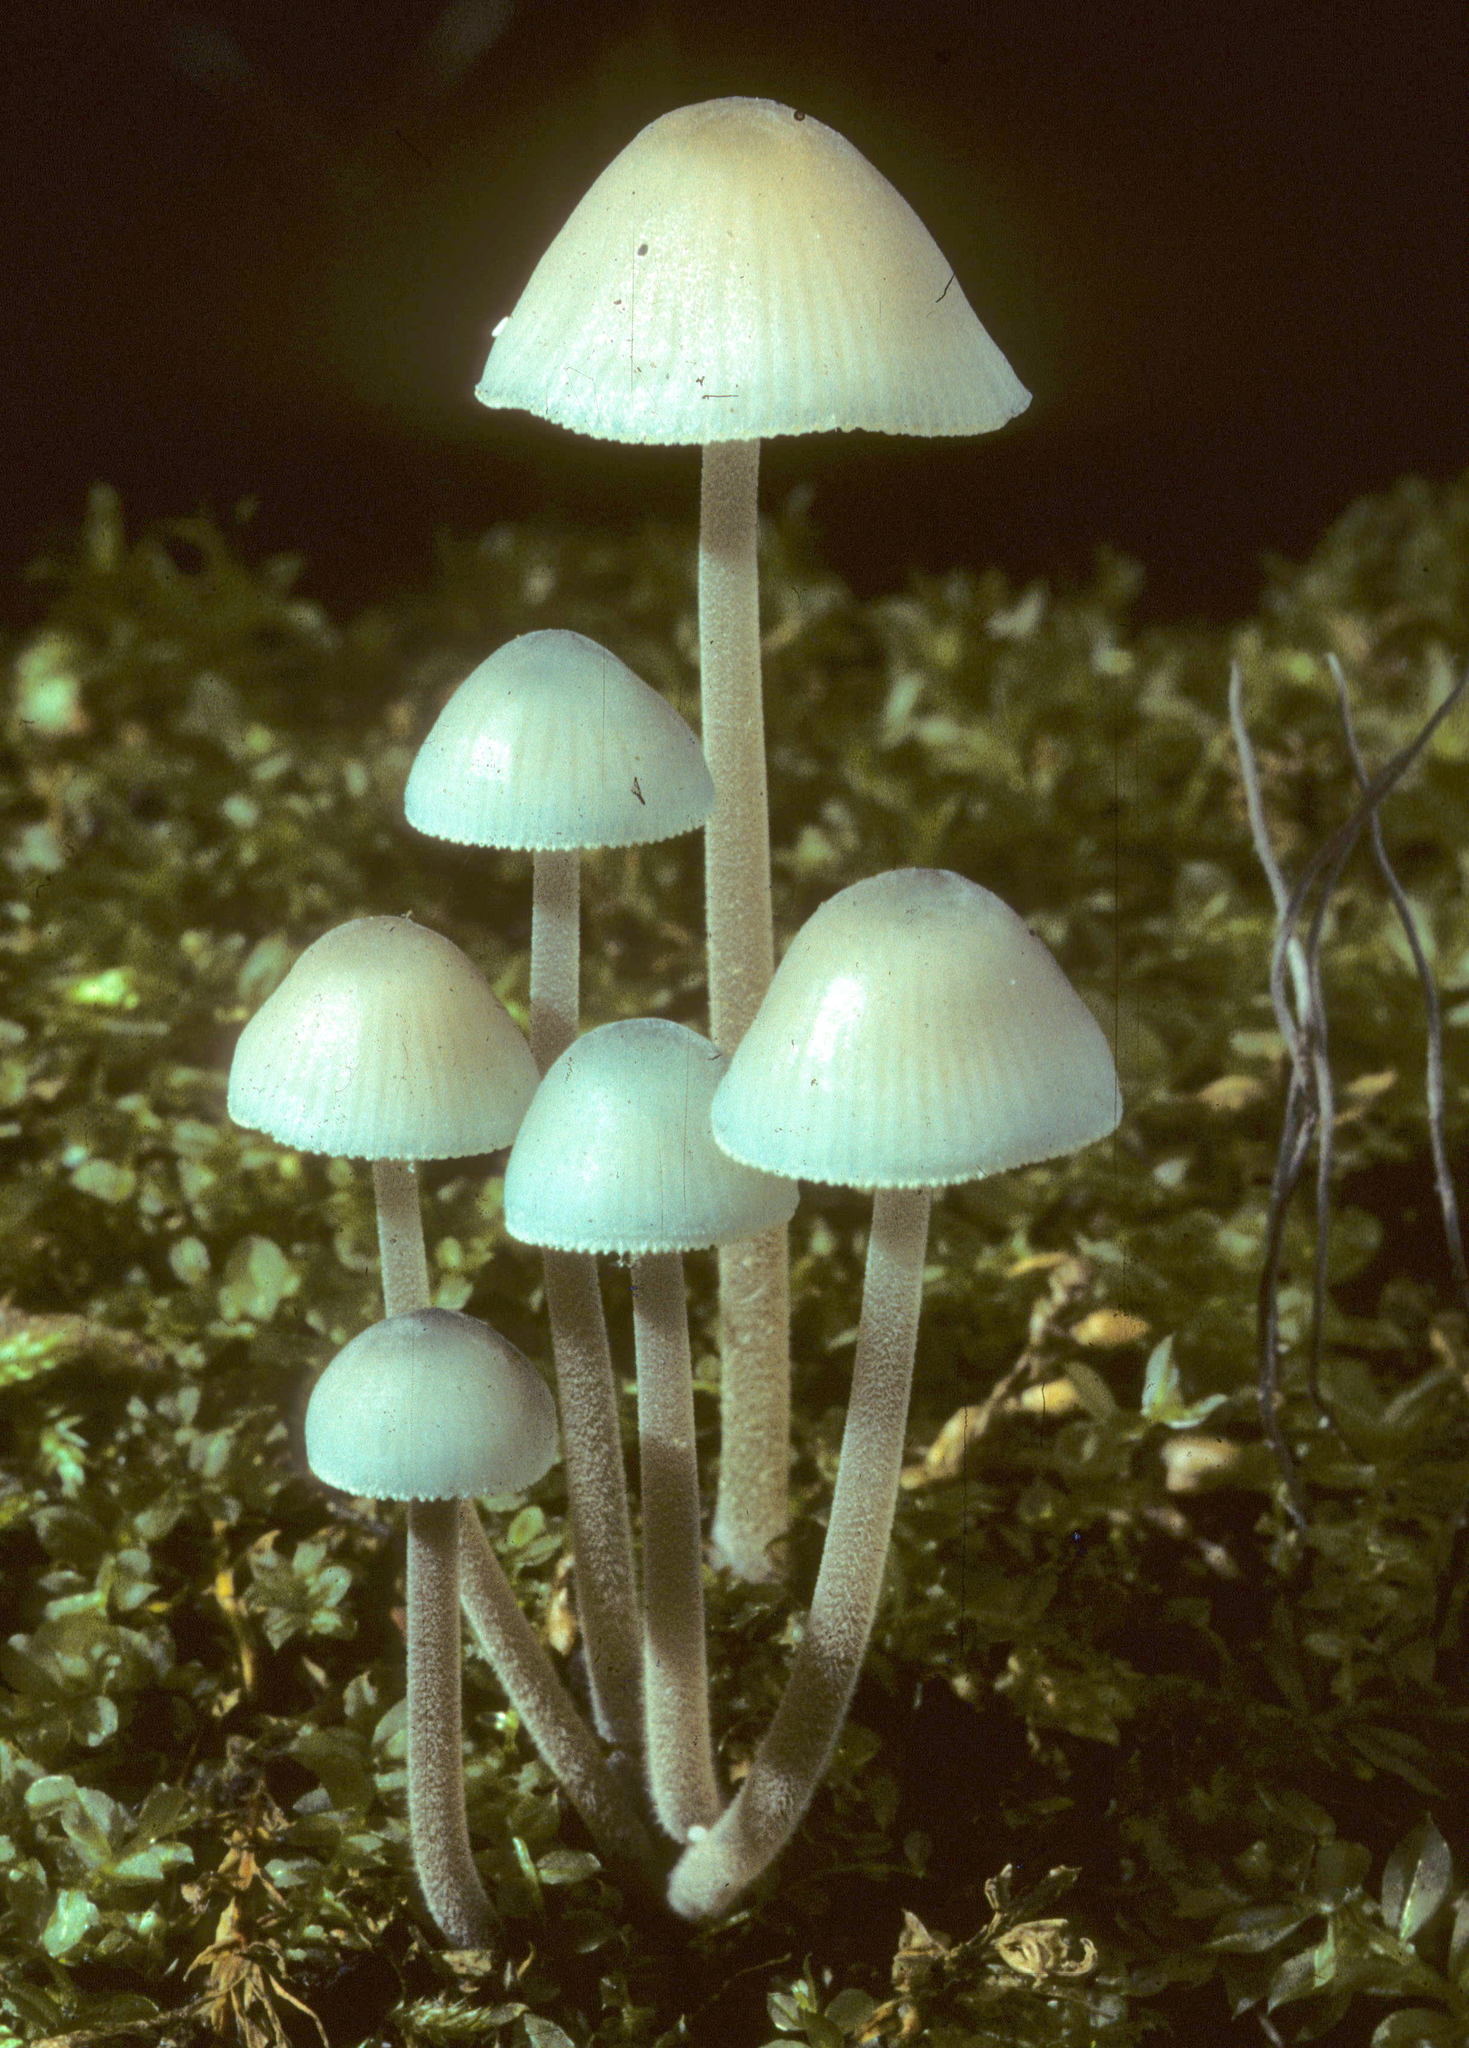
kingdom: Fungi
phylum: Basidiomycota
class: Agaricomycetes
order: Agaricales
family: Mycenaceae
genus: Mycena
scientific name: Mycena subcaerulea
